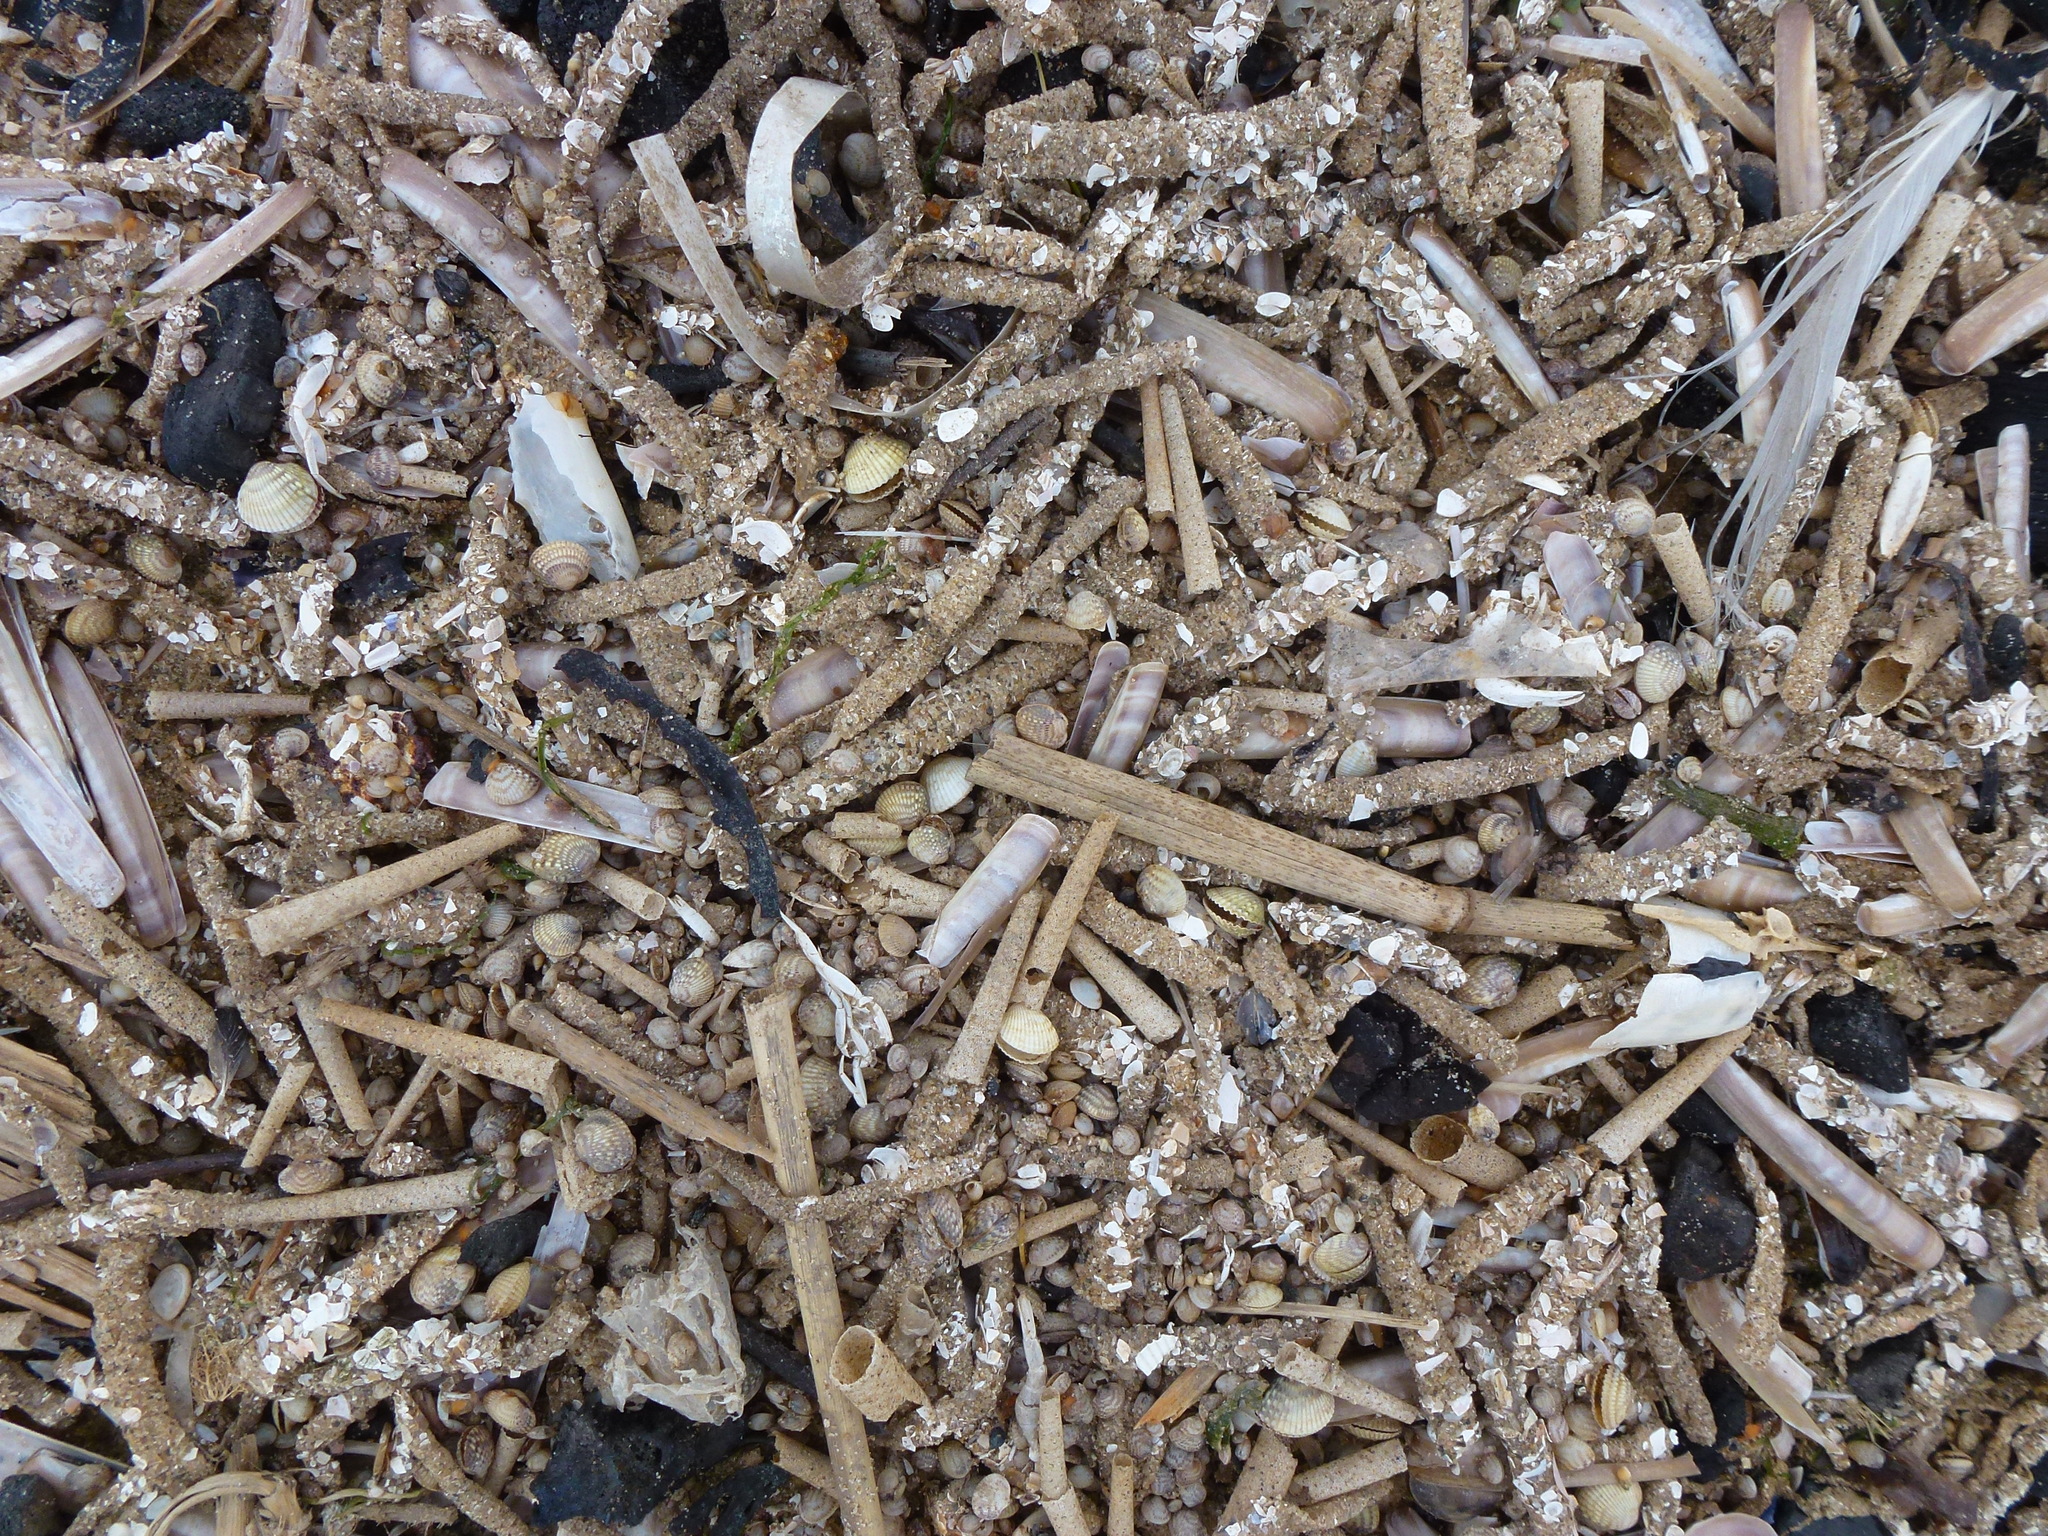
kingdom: Animalia
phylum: Annelida
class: Polychaeta
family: Terebellidae
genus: Lanice
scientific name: Lanice conchilega
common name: Sand mason
